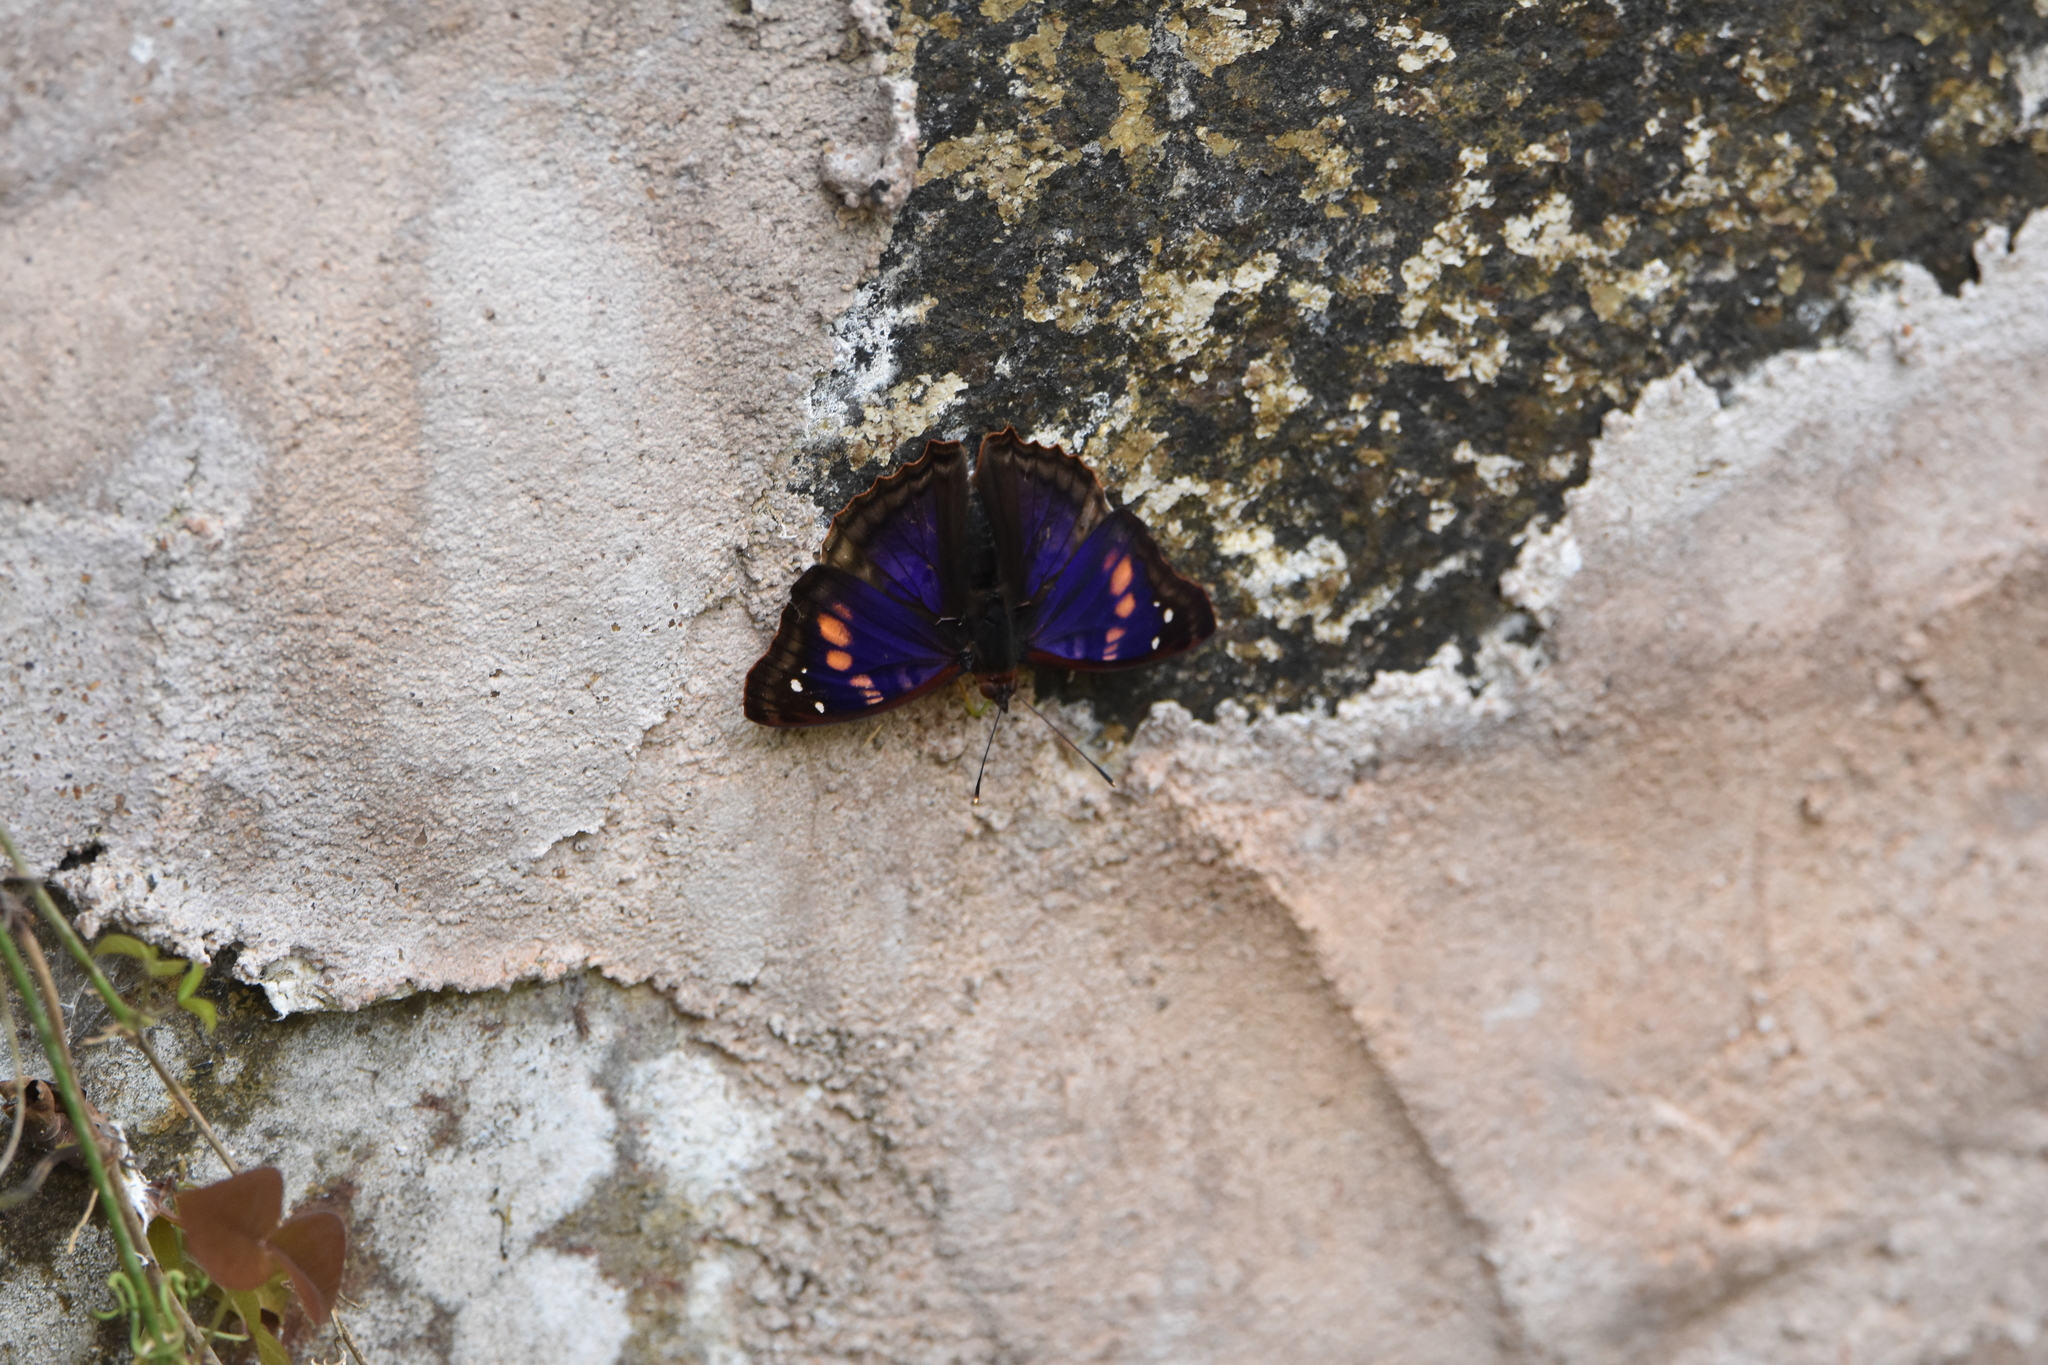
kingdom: Animalia
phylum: Arthropoda
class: Insecta
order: Lepidoptera
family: Nymphalidae
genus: Doxocopa
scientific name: Doxocopa agathina
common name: Agathina emperor
